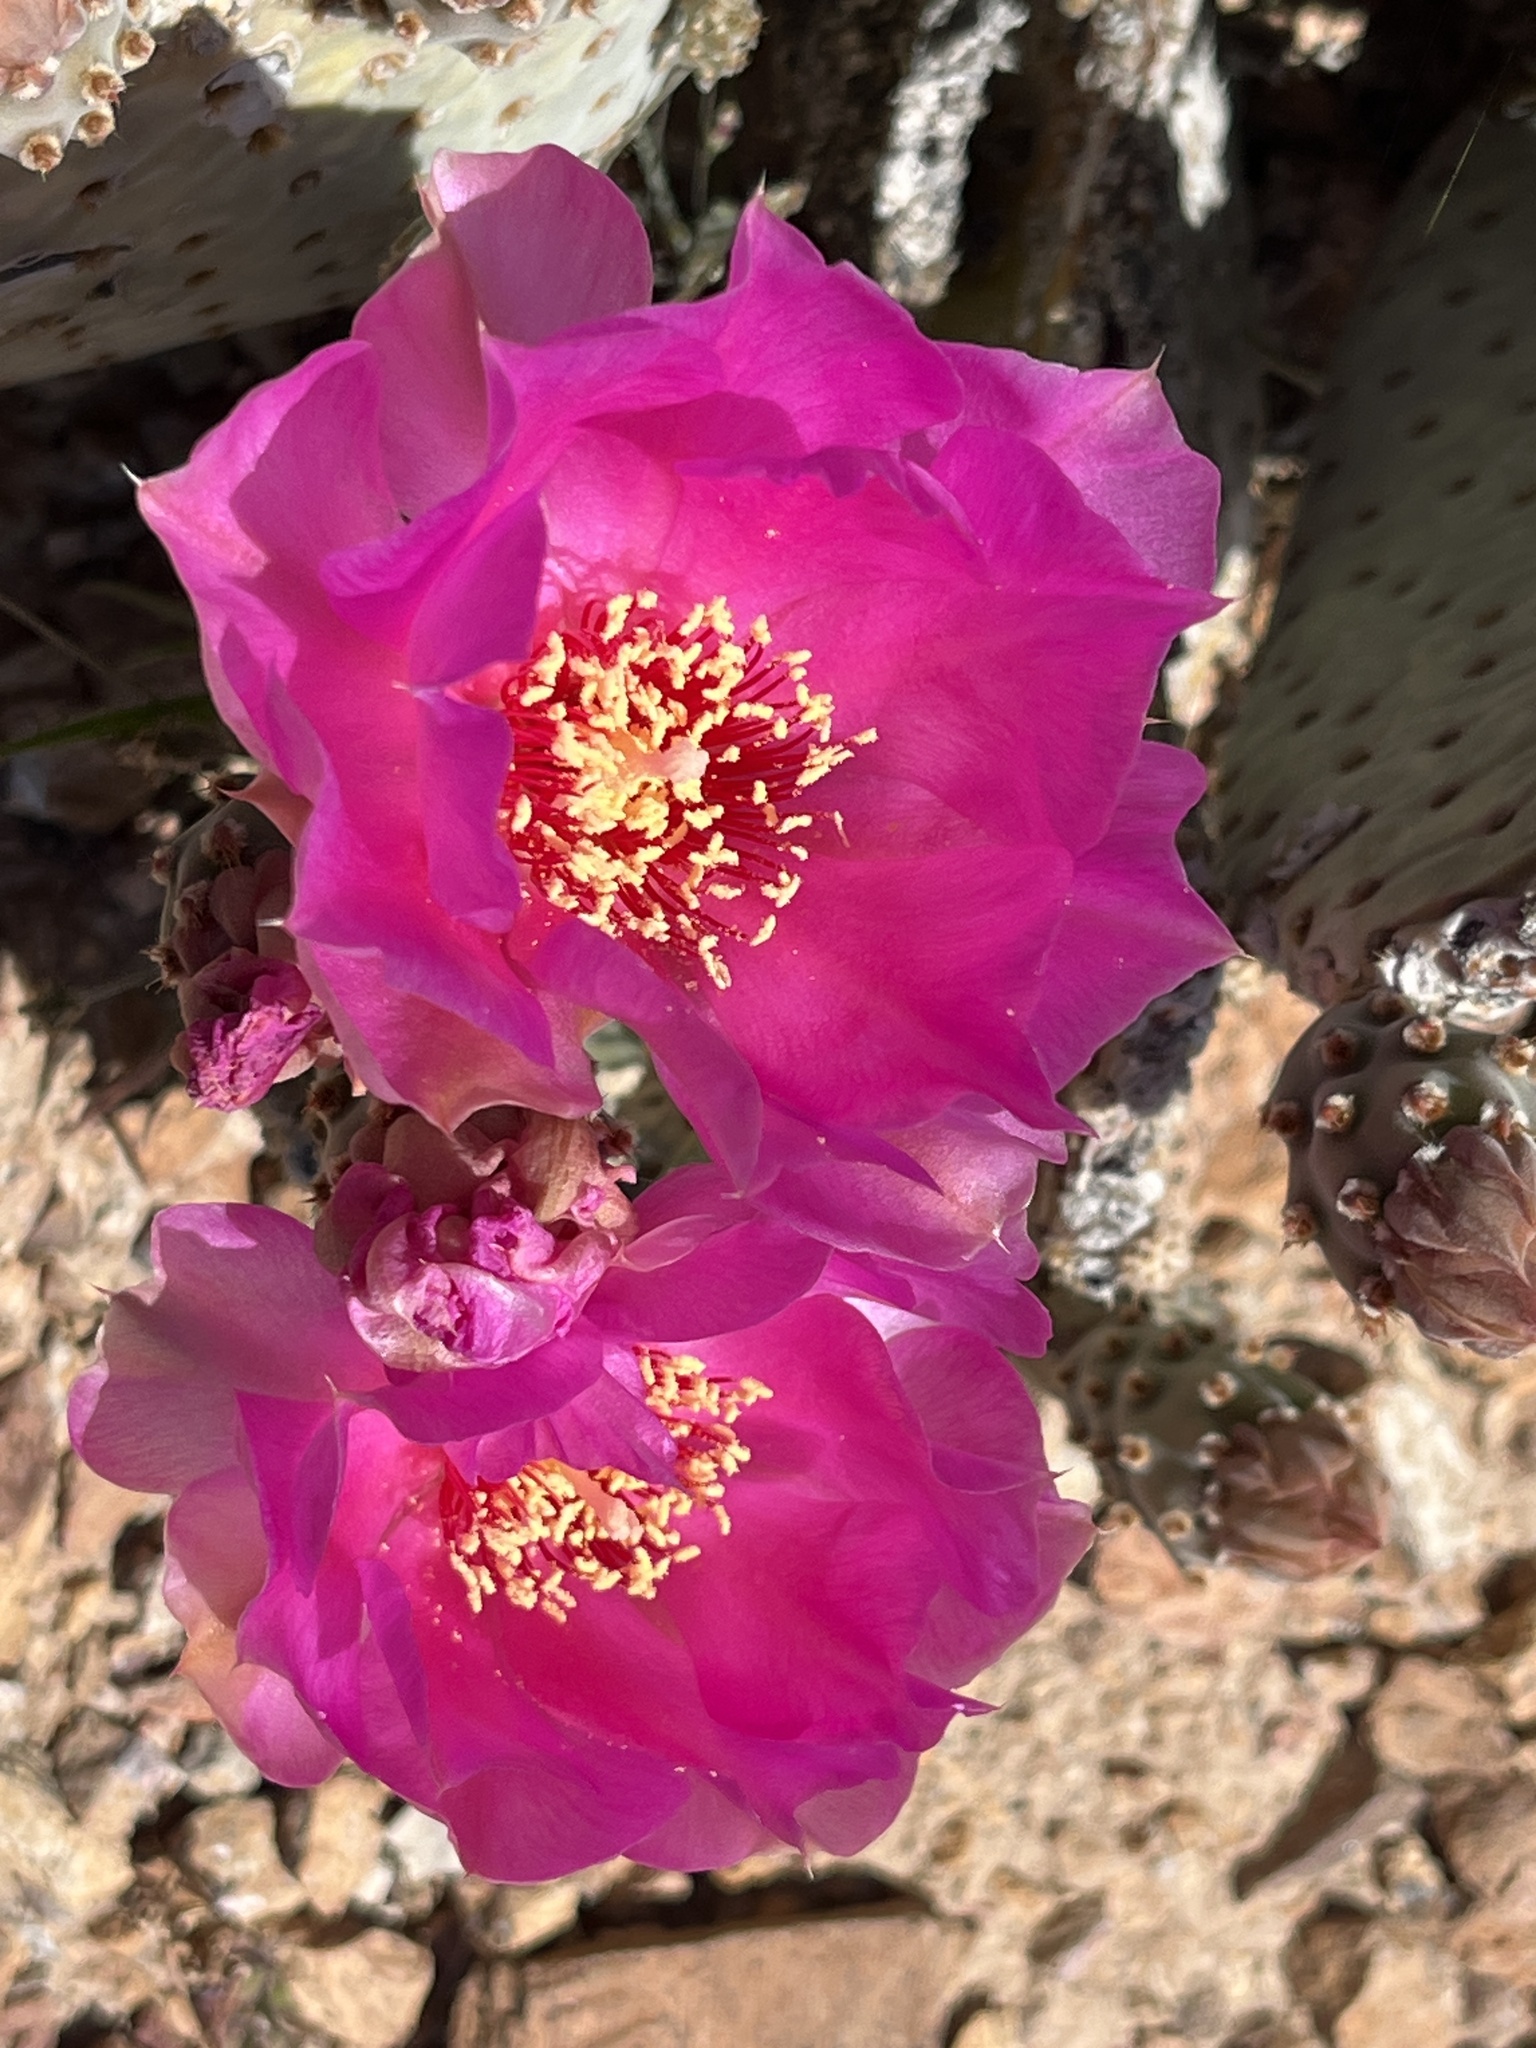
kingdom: Plantae
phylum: Tracheophyta
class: Magnoliopsida
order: Caryophyllales
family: Cactaceae
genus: Opuntia
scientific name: Opuntia basilaris
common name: Beavertail prickly-pear
